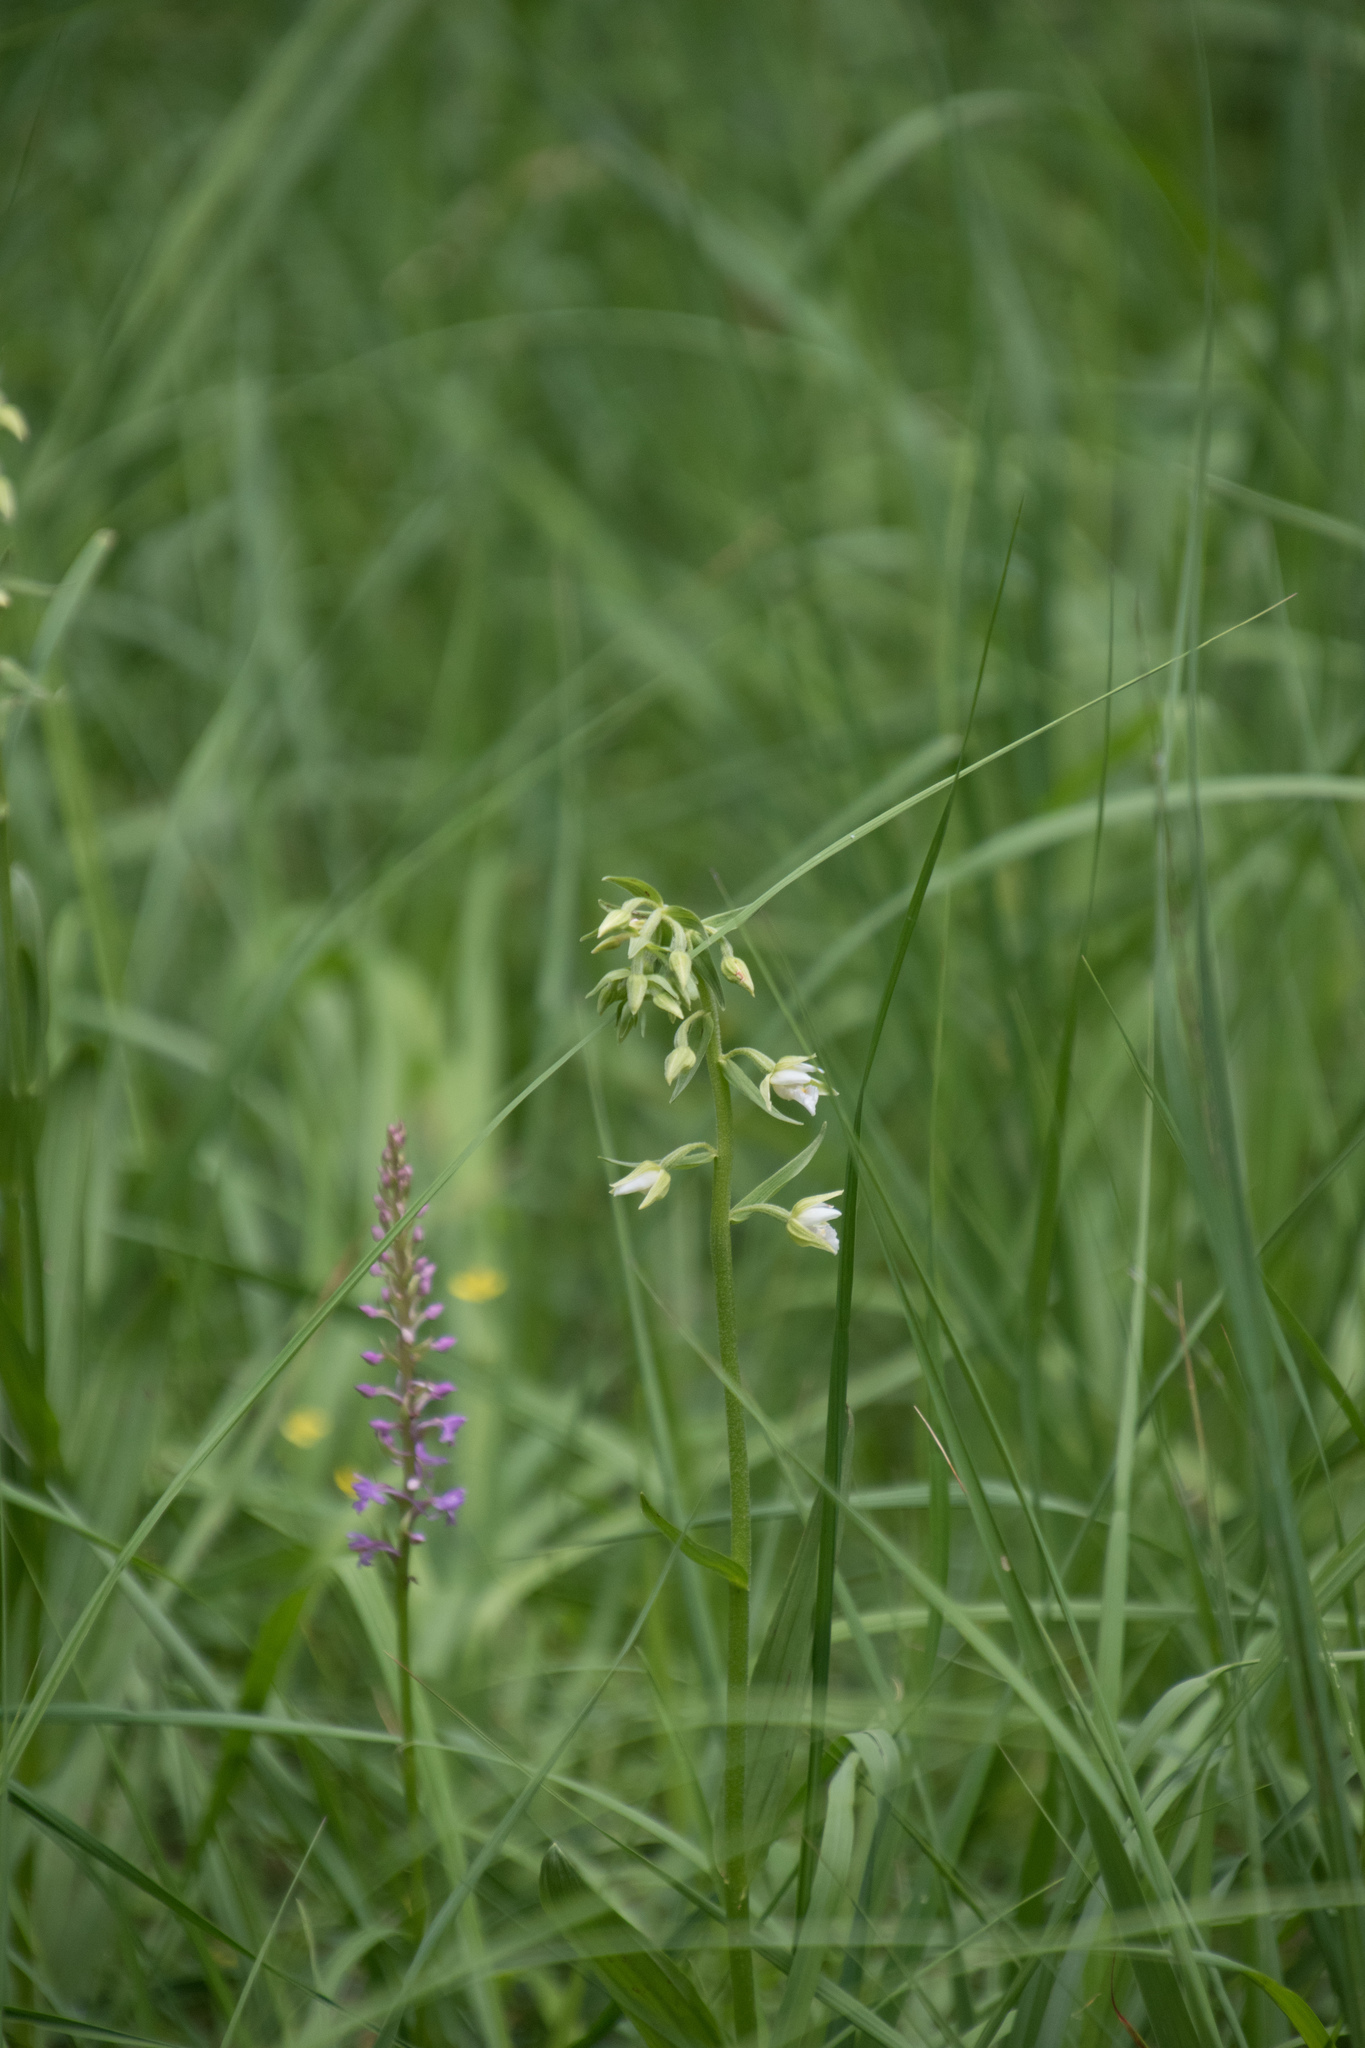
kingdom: Plantae
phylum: Tracheophyta
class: Liliopsida
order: Asparagales
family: Orchidaceae
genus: Epipactis
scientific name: Epipactis palustris
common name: Marsh helleborine
